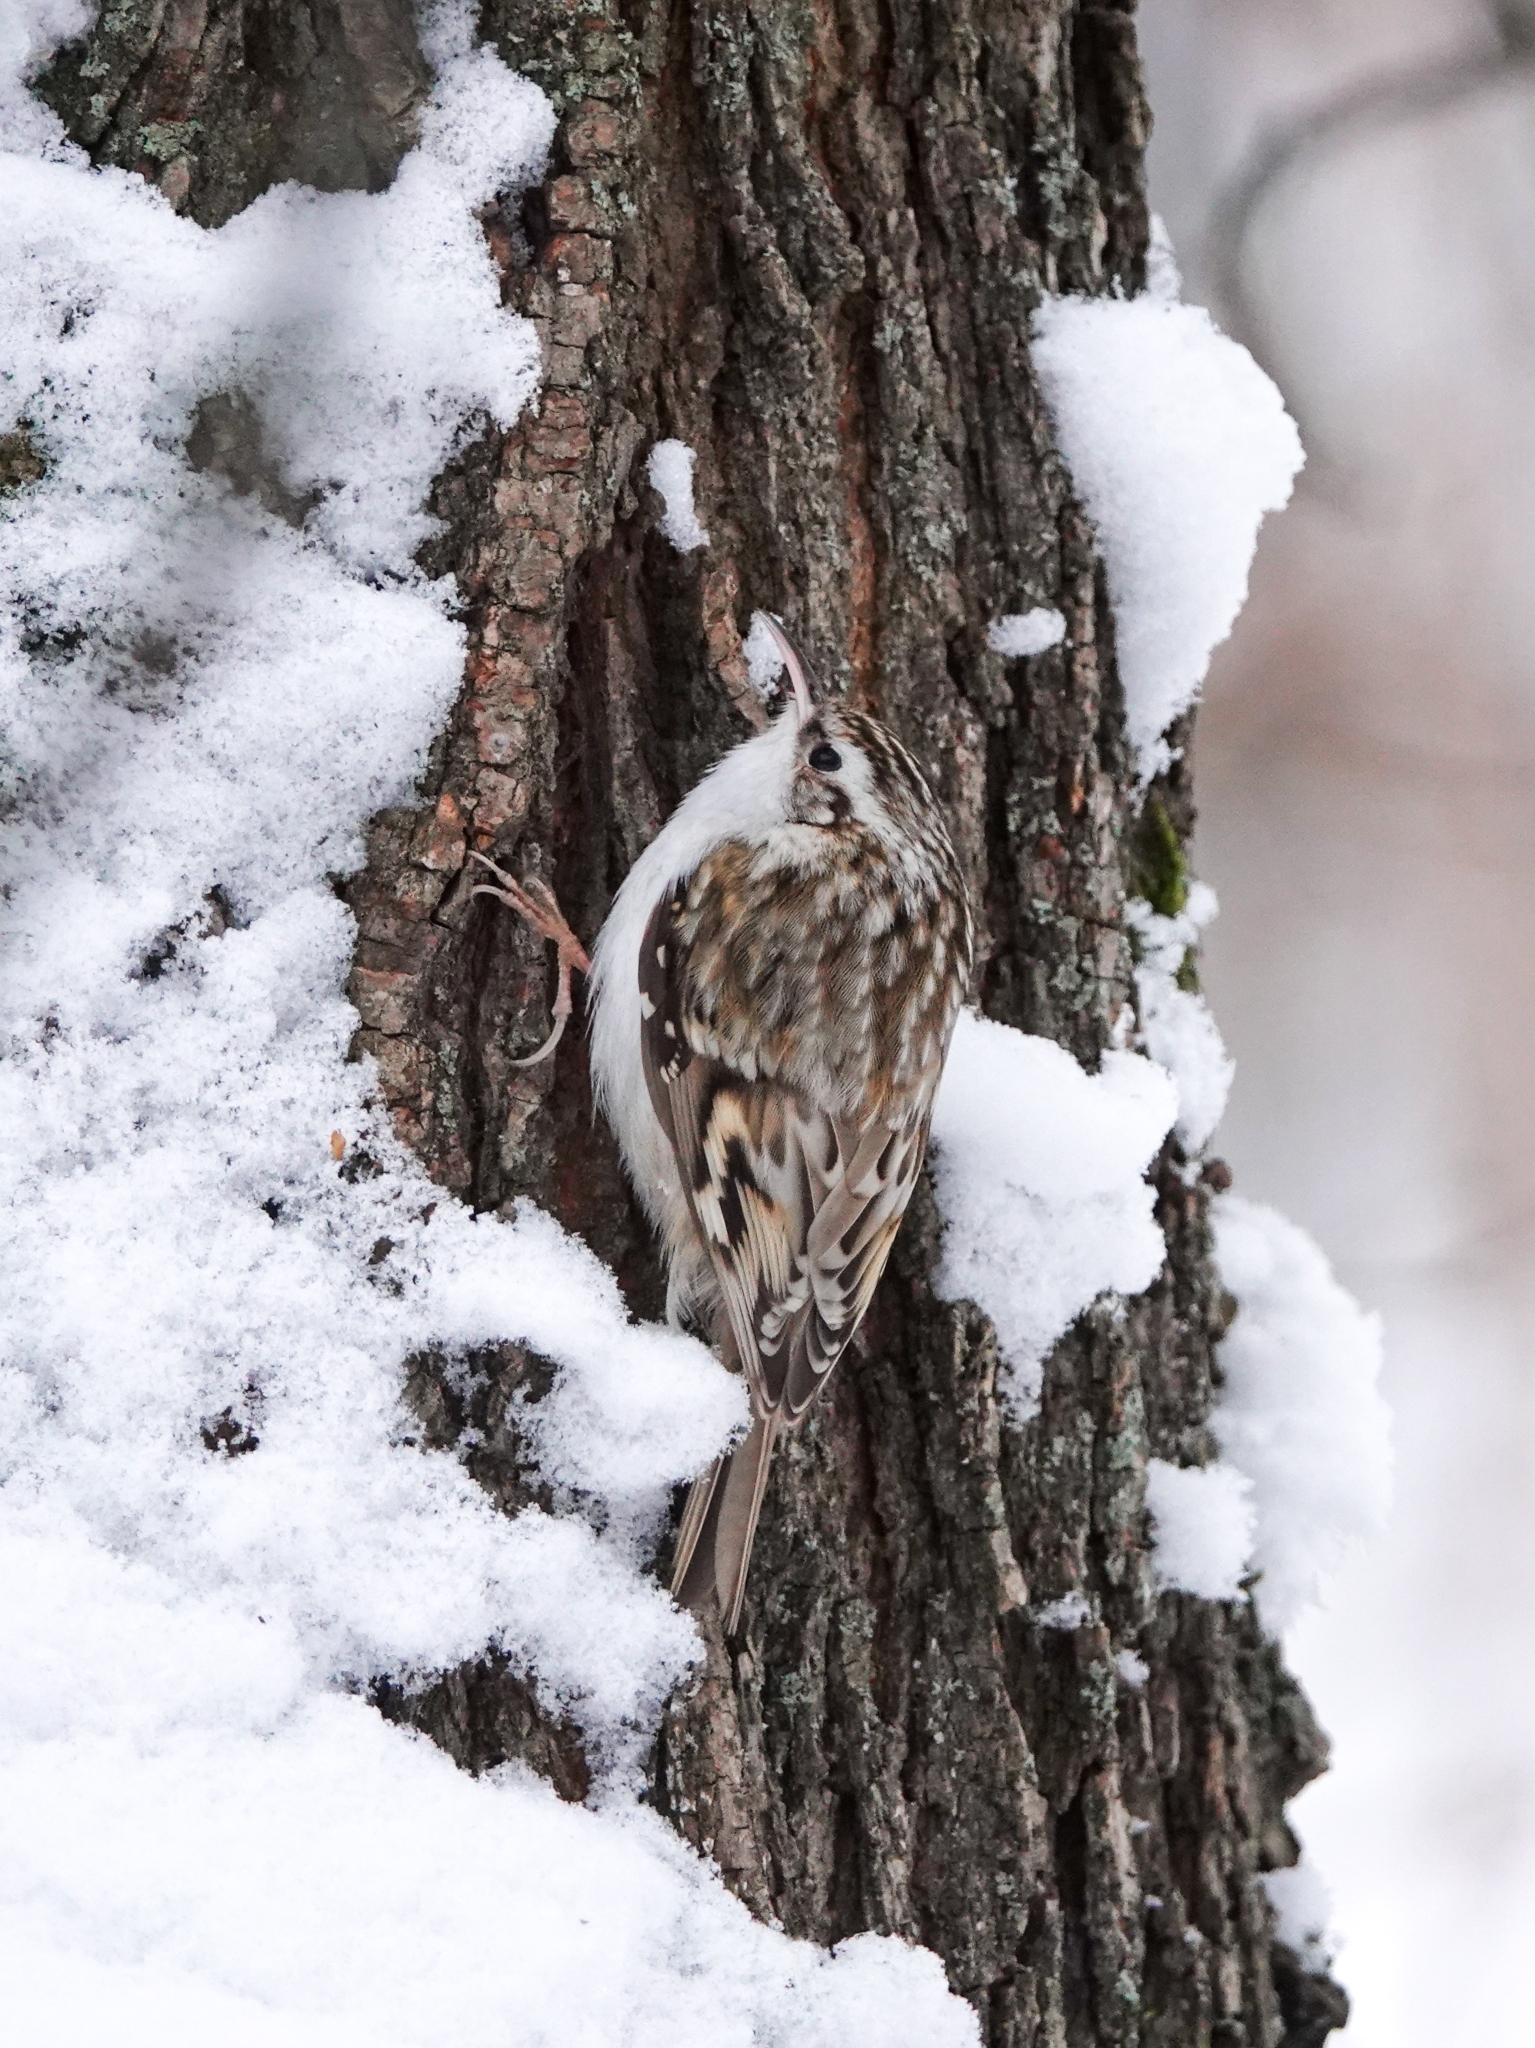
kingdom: Animalia
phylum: Chordata
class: Aves
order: Passeriformes
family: Certhiidae
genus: Certhia
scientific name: Certhia familiaris
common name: Eurasian treecreeper
